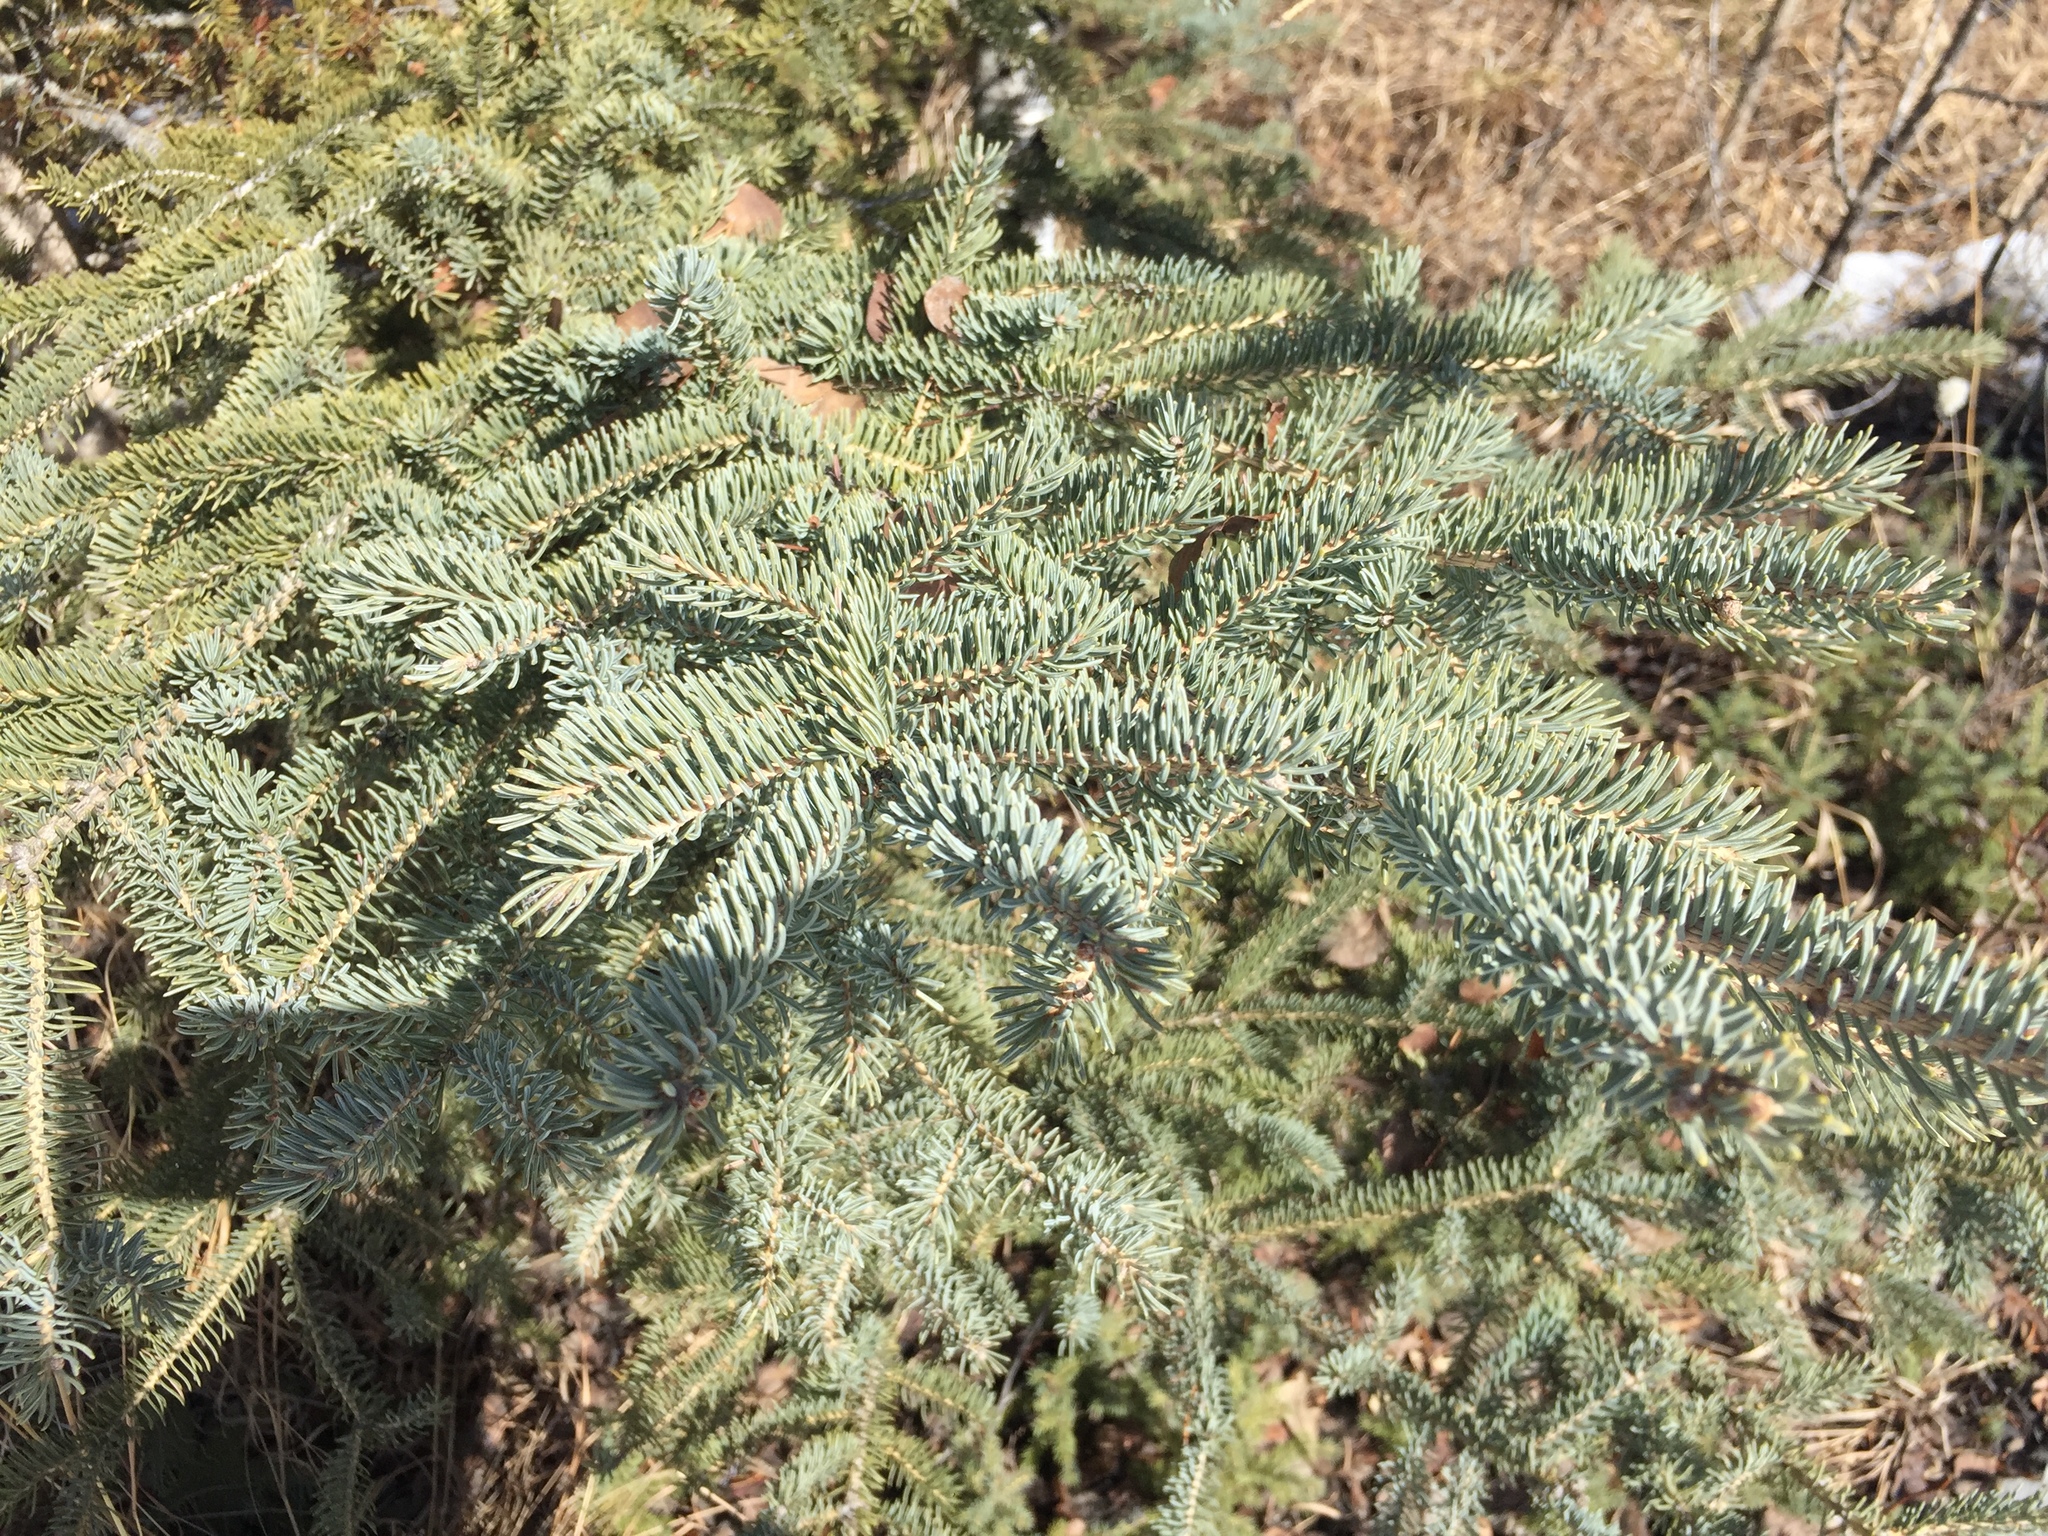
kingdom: Plantae
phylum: Tracheophyta
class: Pinopsida
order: Pinales
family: Pinaceae
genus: Picea
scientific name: Picea glauca
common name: White spruce
